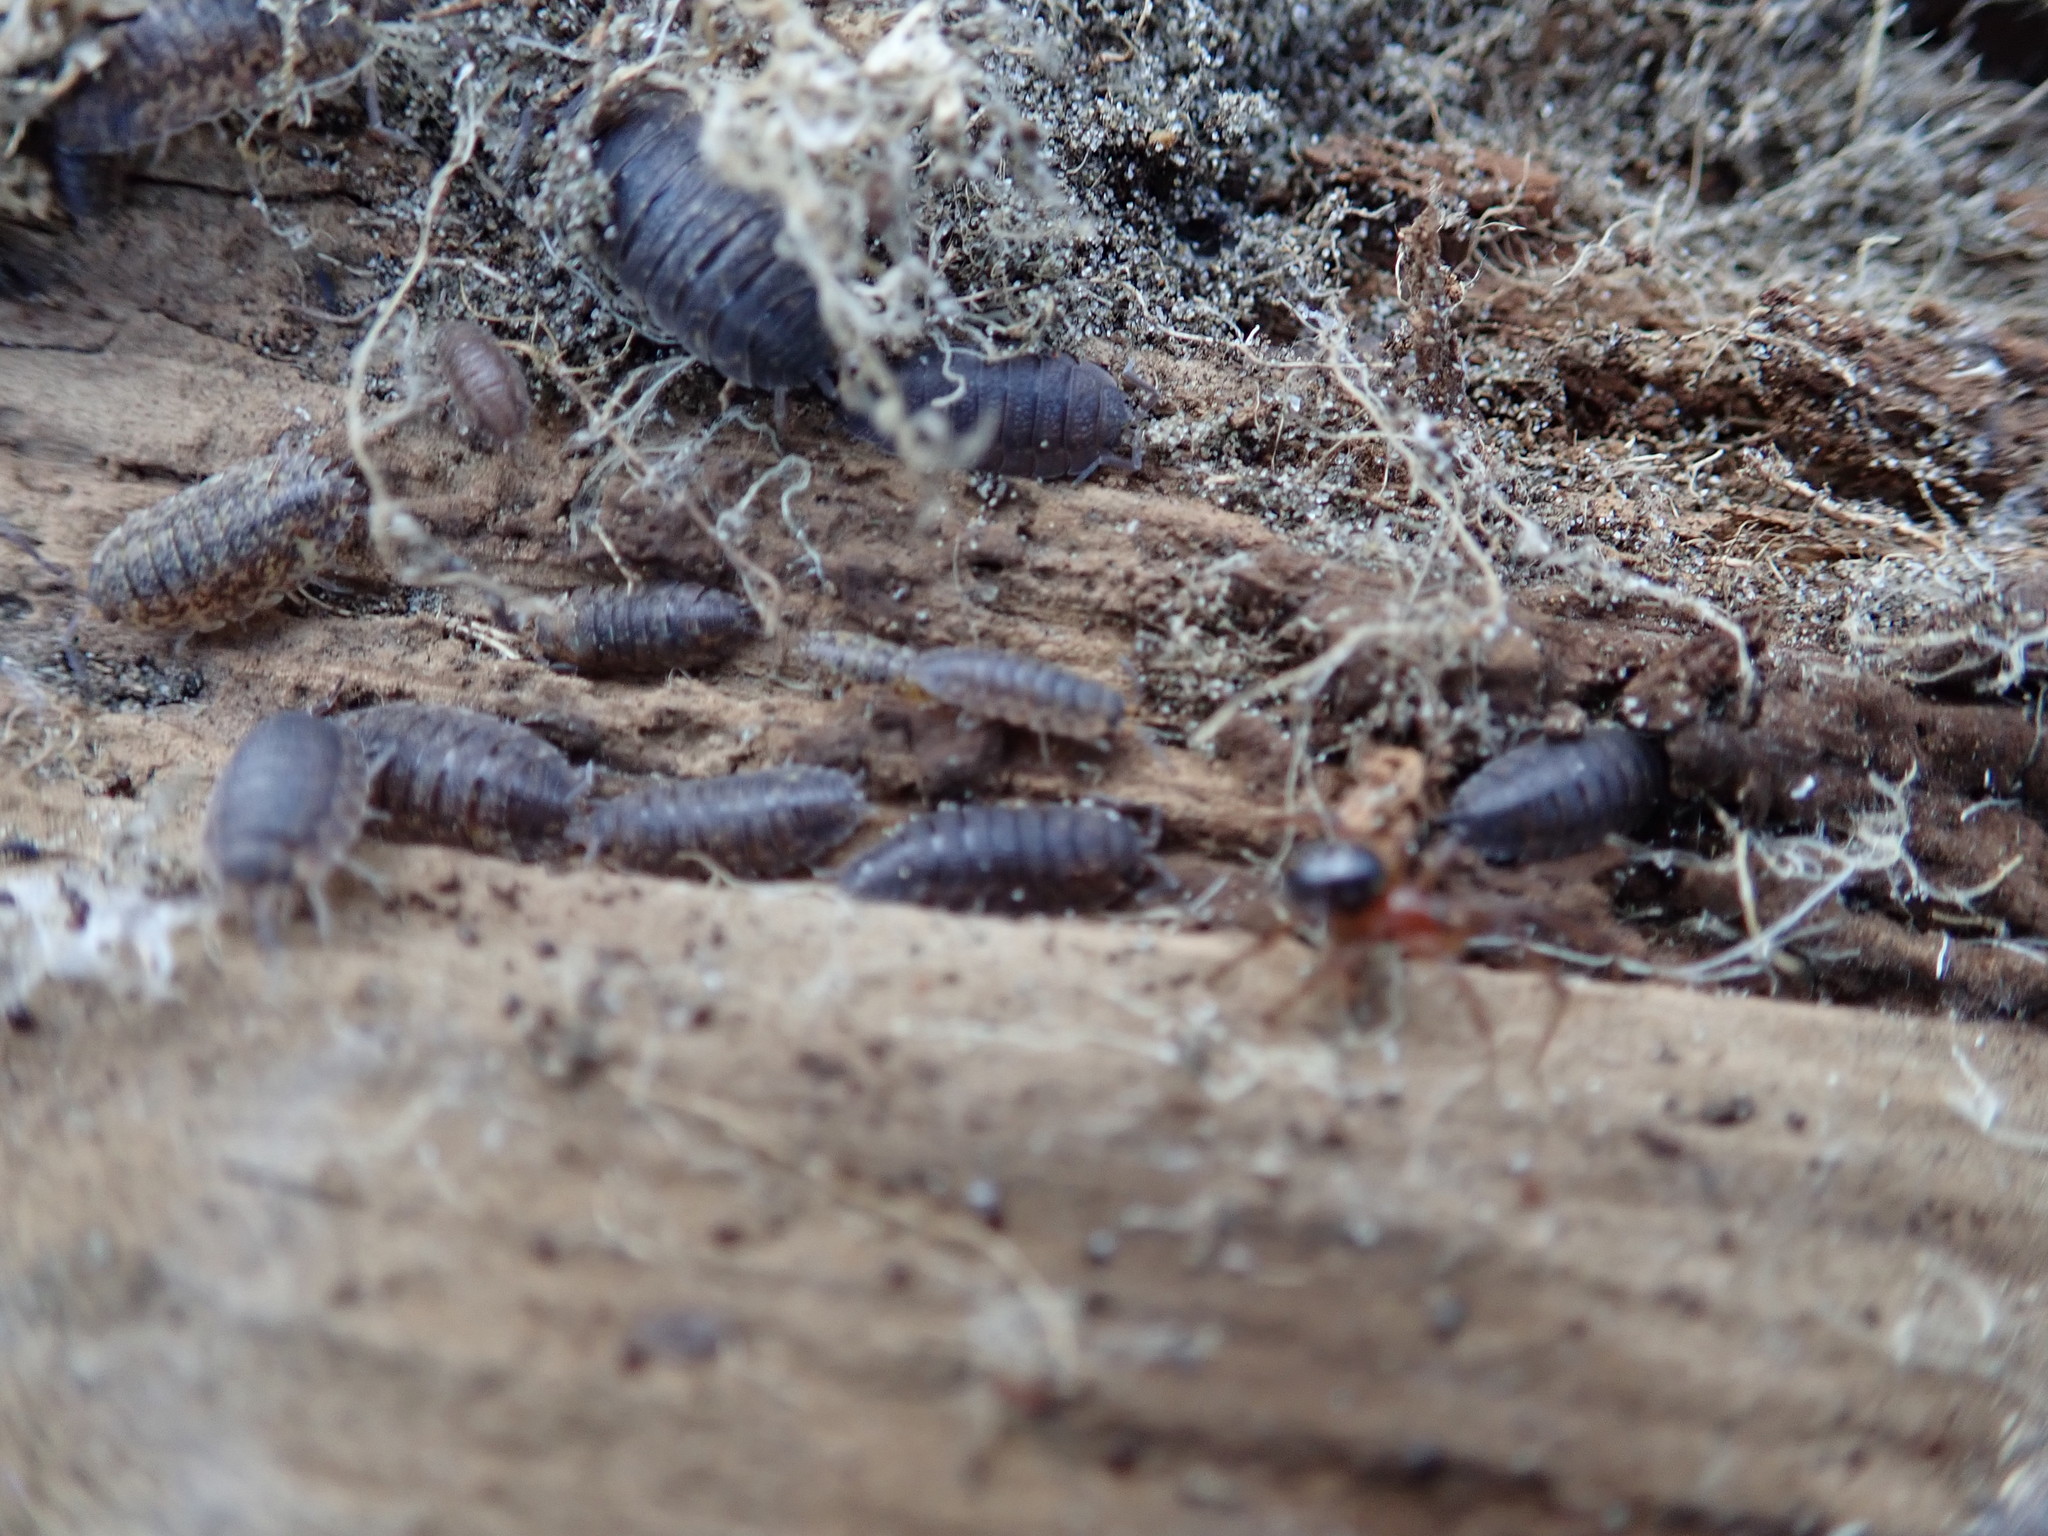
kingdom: Animalia
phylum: Arthropoda
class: Arachnida
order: Araneae
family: Theridiidae
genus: Steatoda
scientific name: Steatoda capensis
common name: Cobweb weaver
